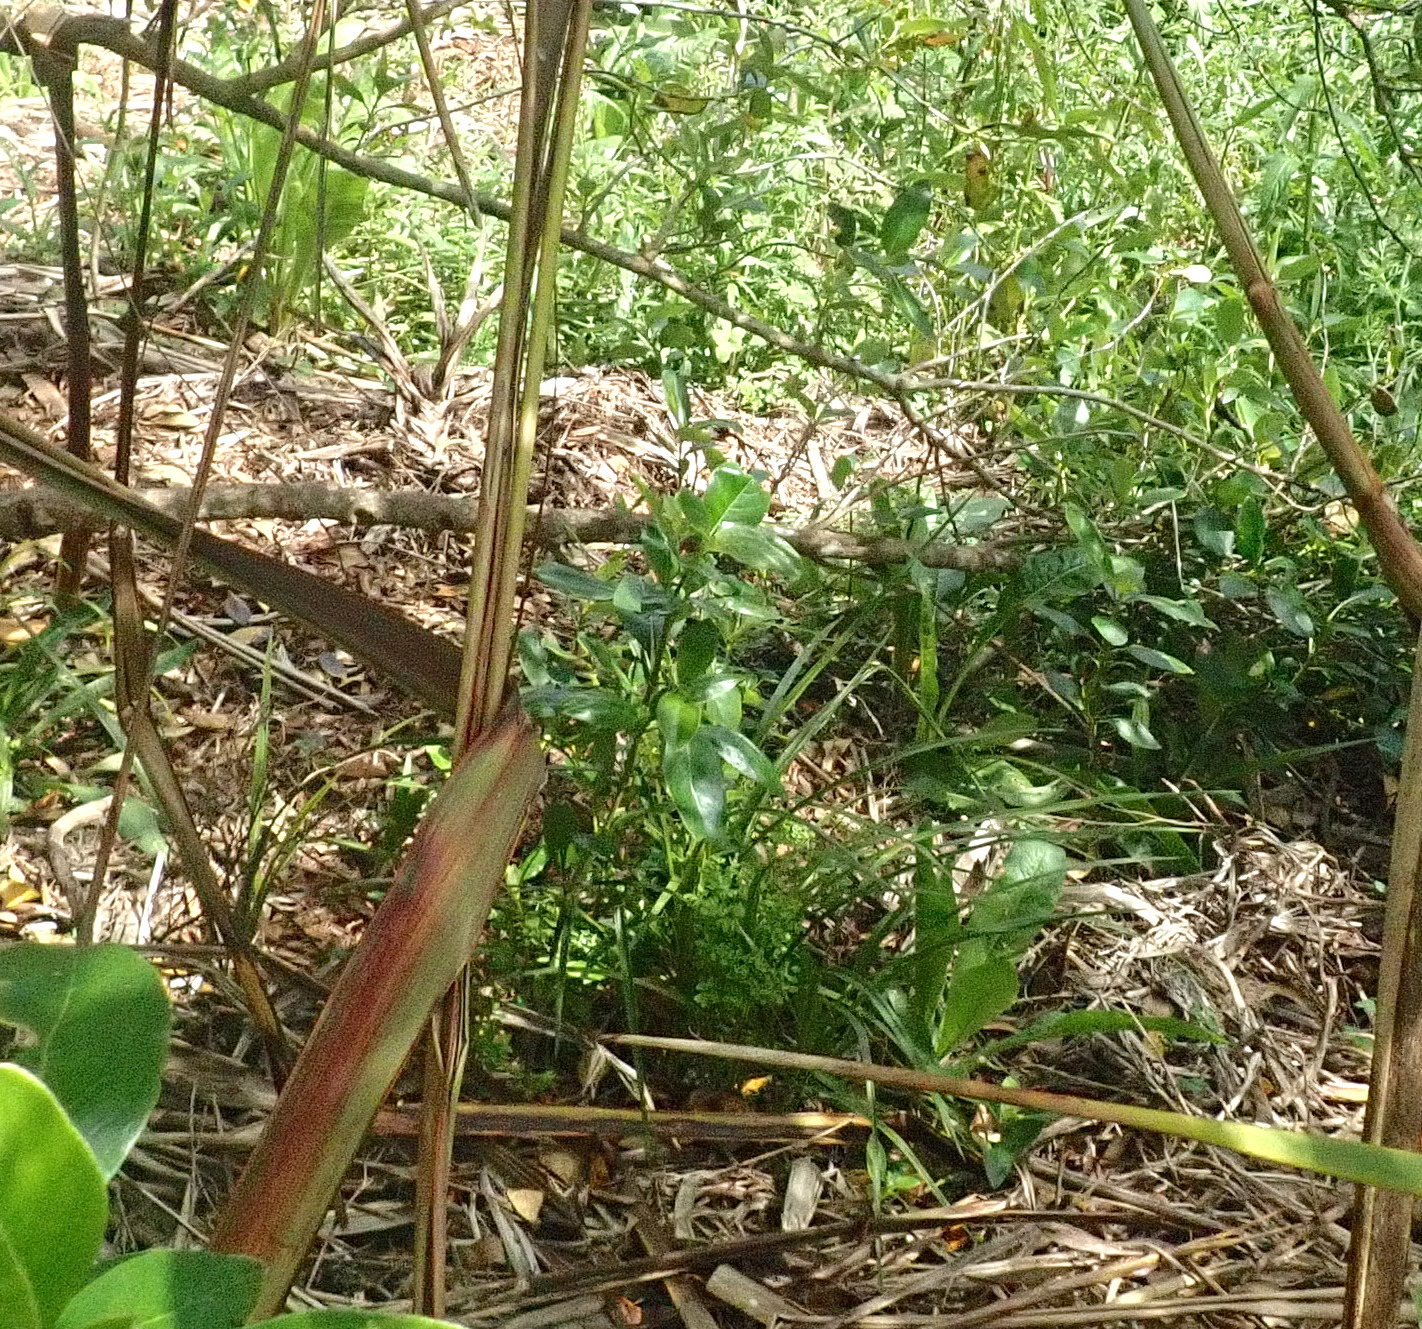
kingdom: Plantae
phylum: Tracheophyta
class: Magnoliopsida
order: Gentianales
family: Rubiaceae
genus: Coprosma
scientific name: Coprosma robusta
